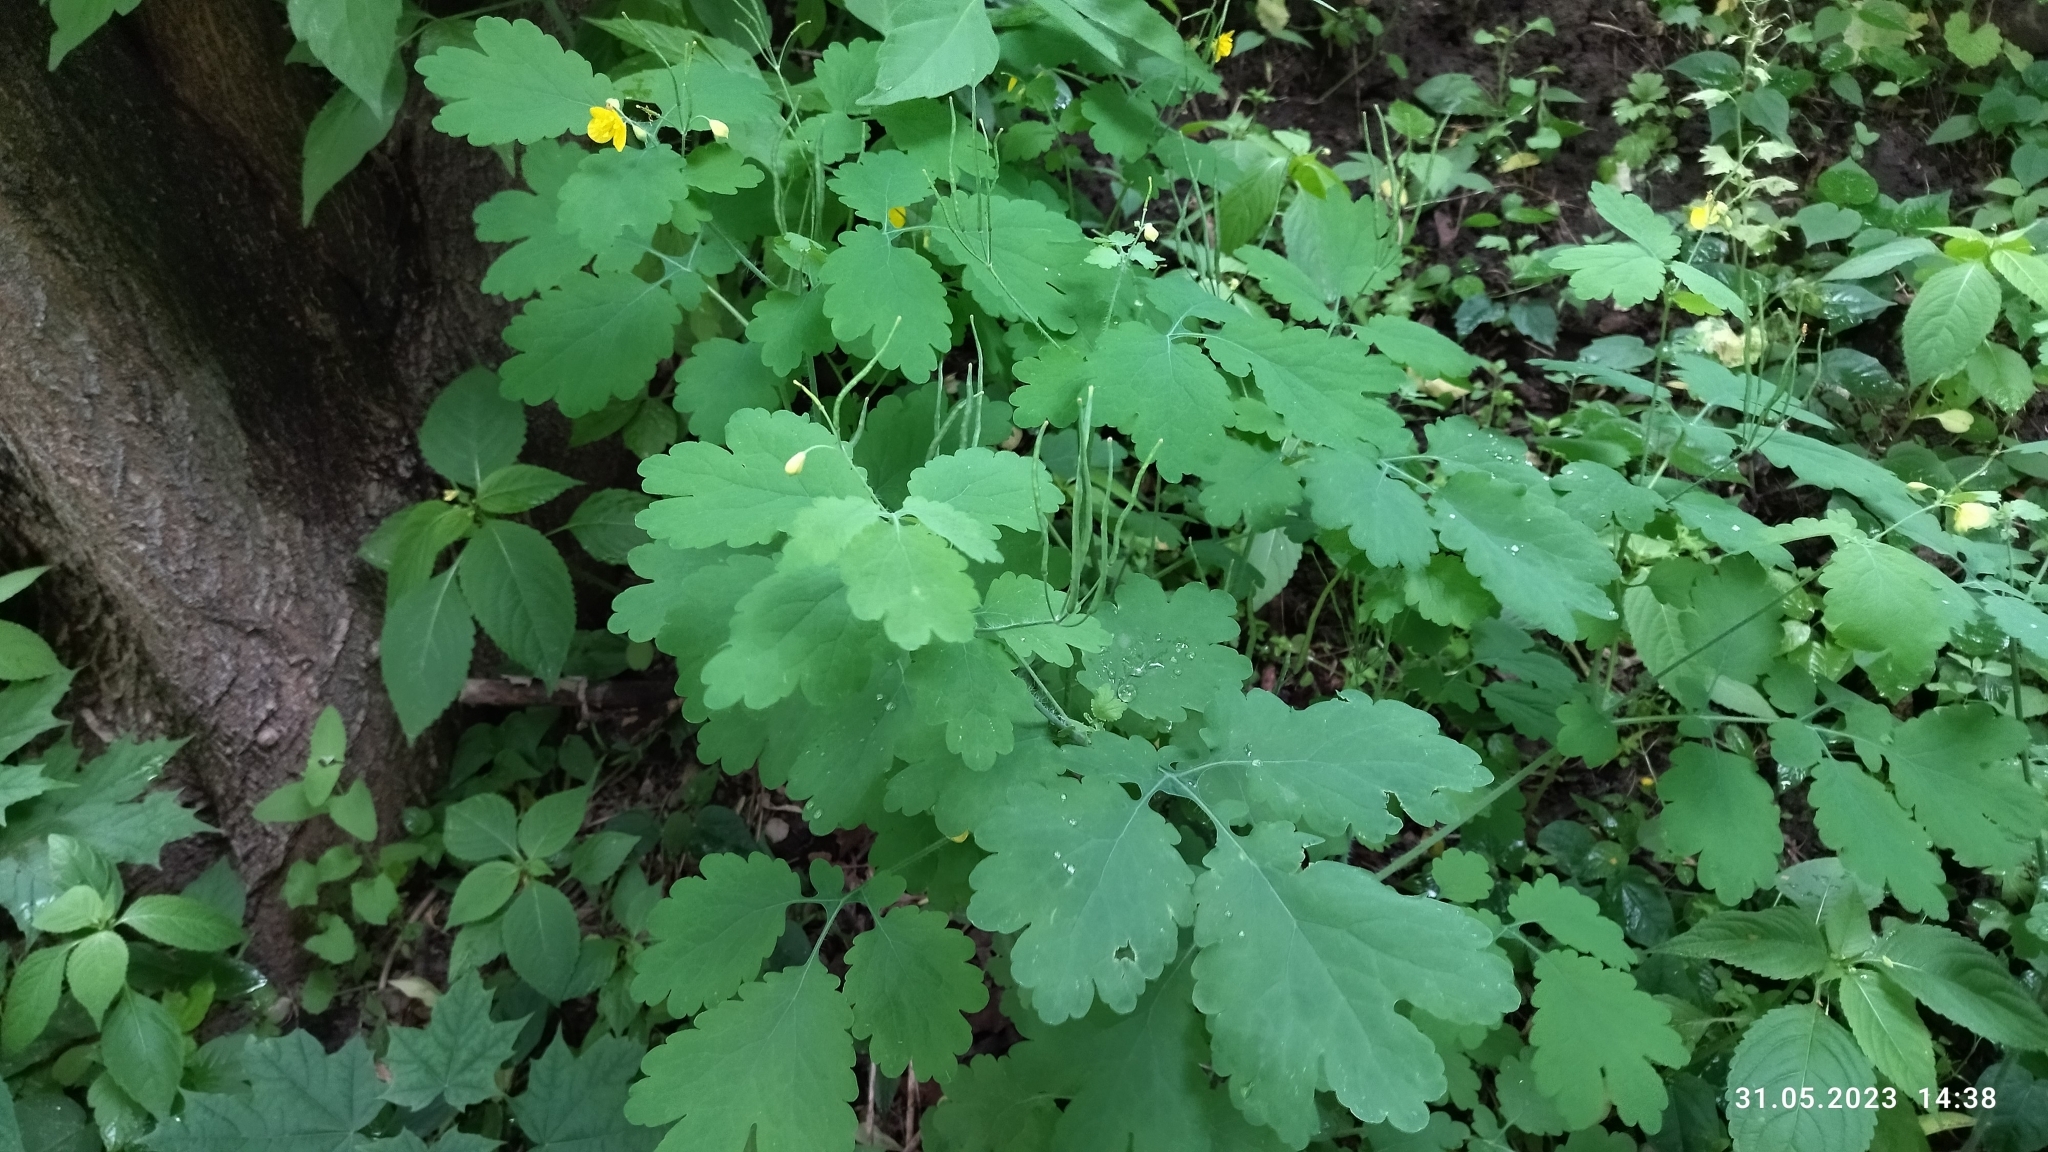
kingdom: Plantae
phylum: Tracheophyta
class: Magnoliopsida
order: Ranunculales
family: Papaveraceae
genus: Chelidonium
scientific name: Chelidonium majus
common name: Greater celandine
